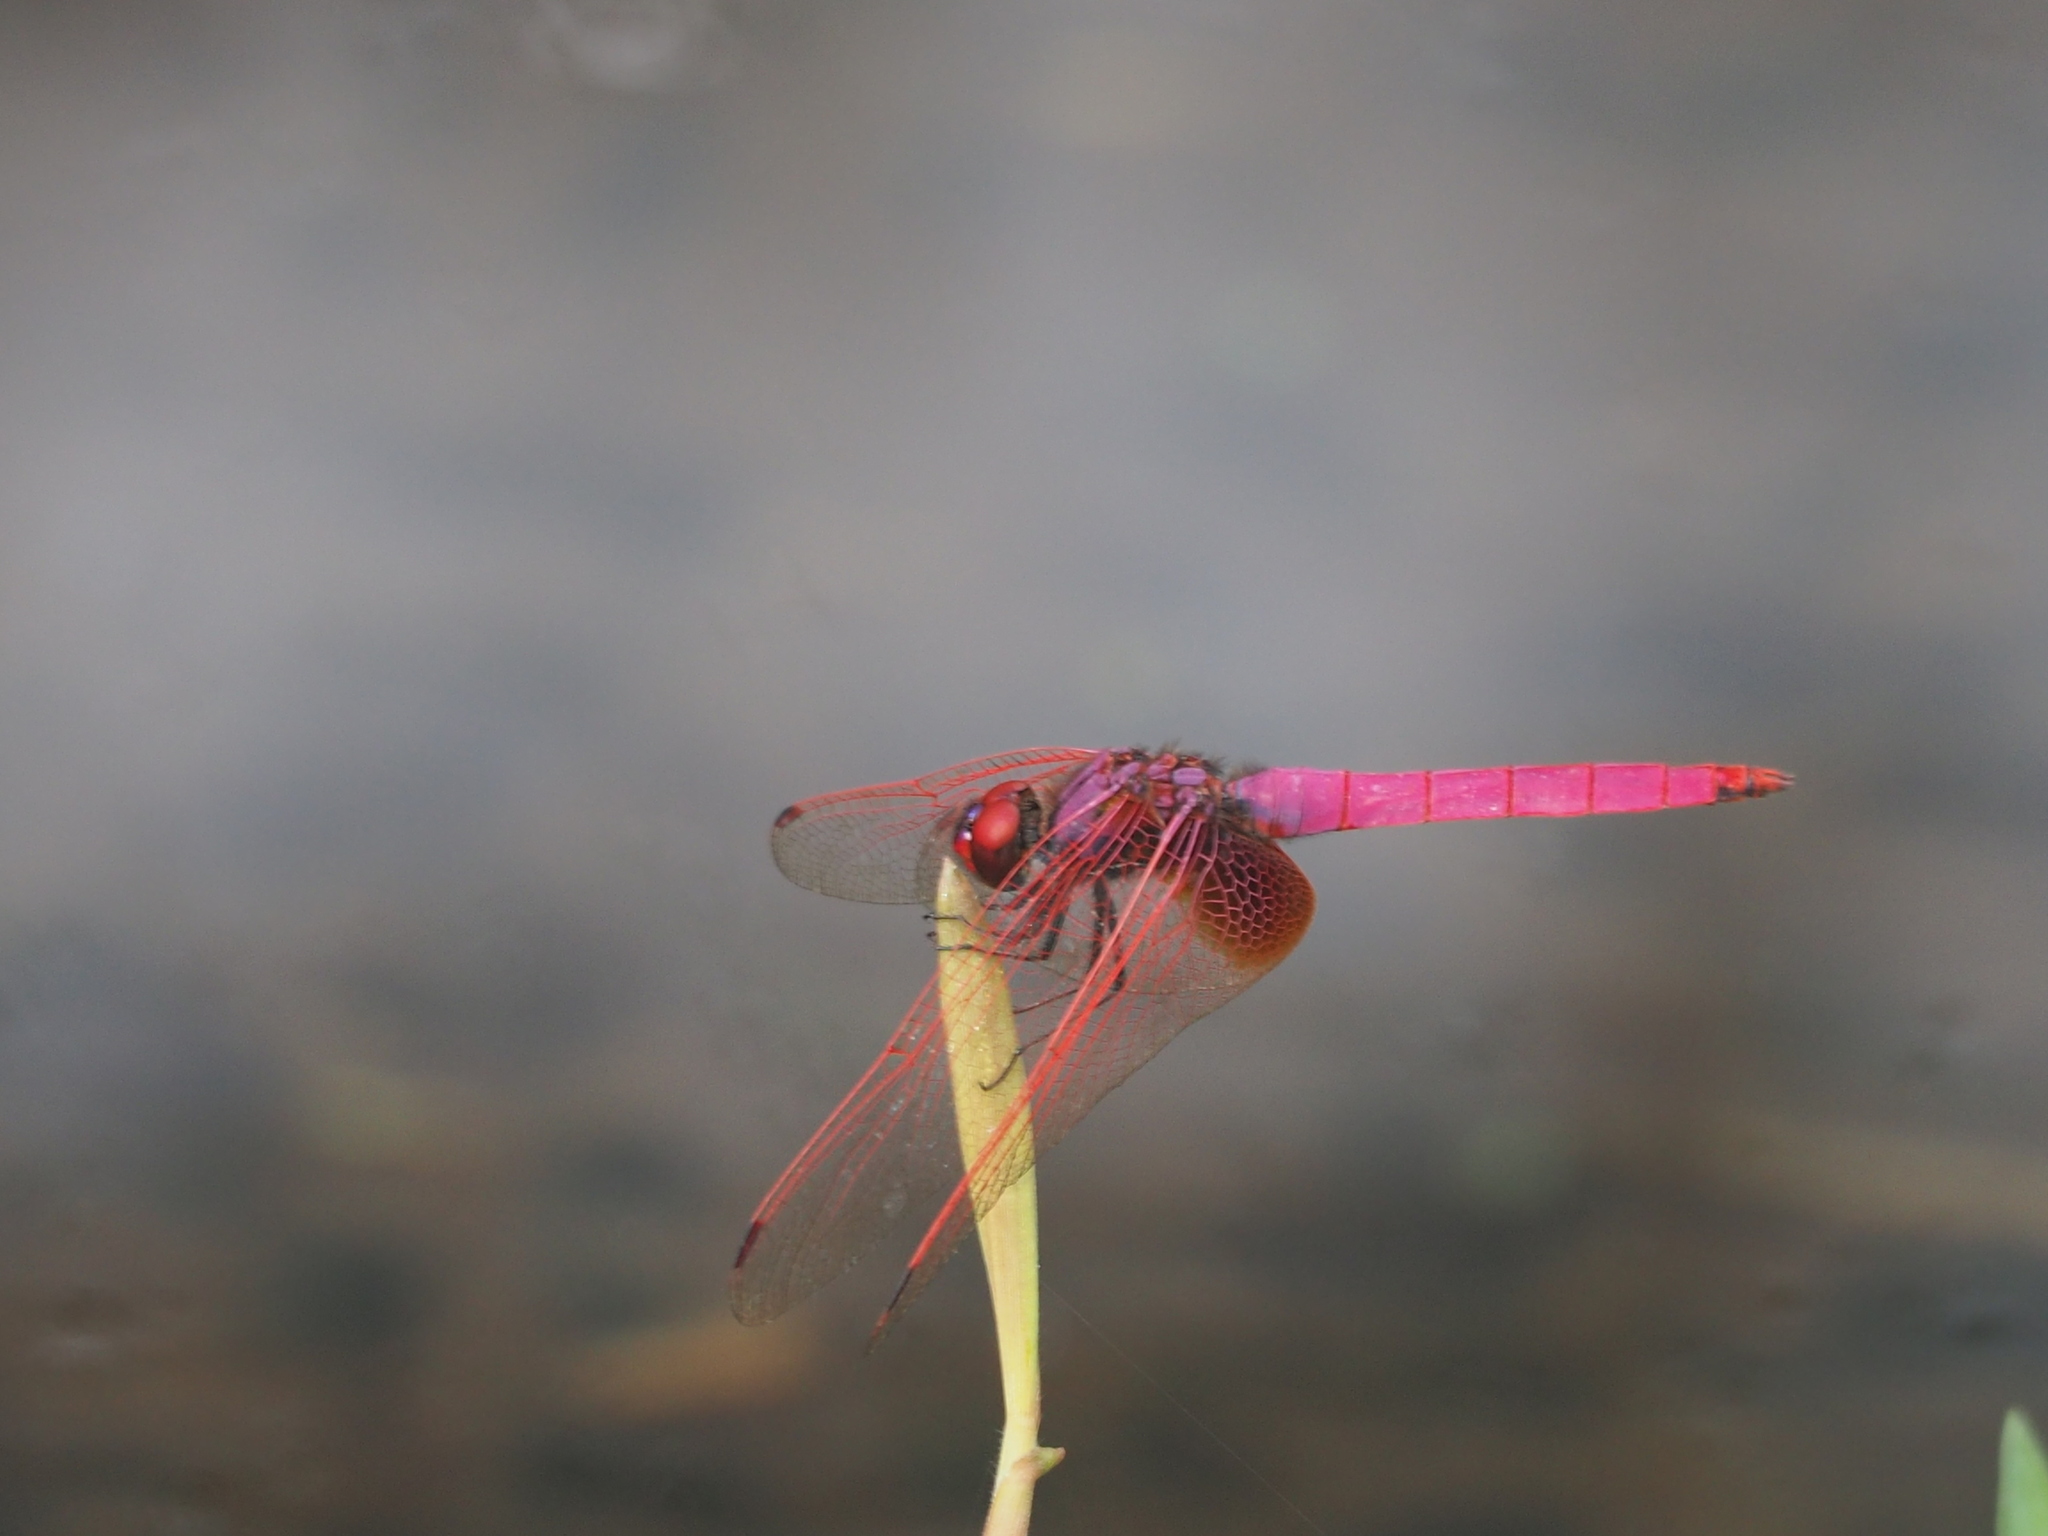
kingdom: Animalia
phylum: Arthropoda
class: Insecta
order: Odonata
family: Libellulidae
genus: Trithemis
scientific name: Trithemis aurora
